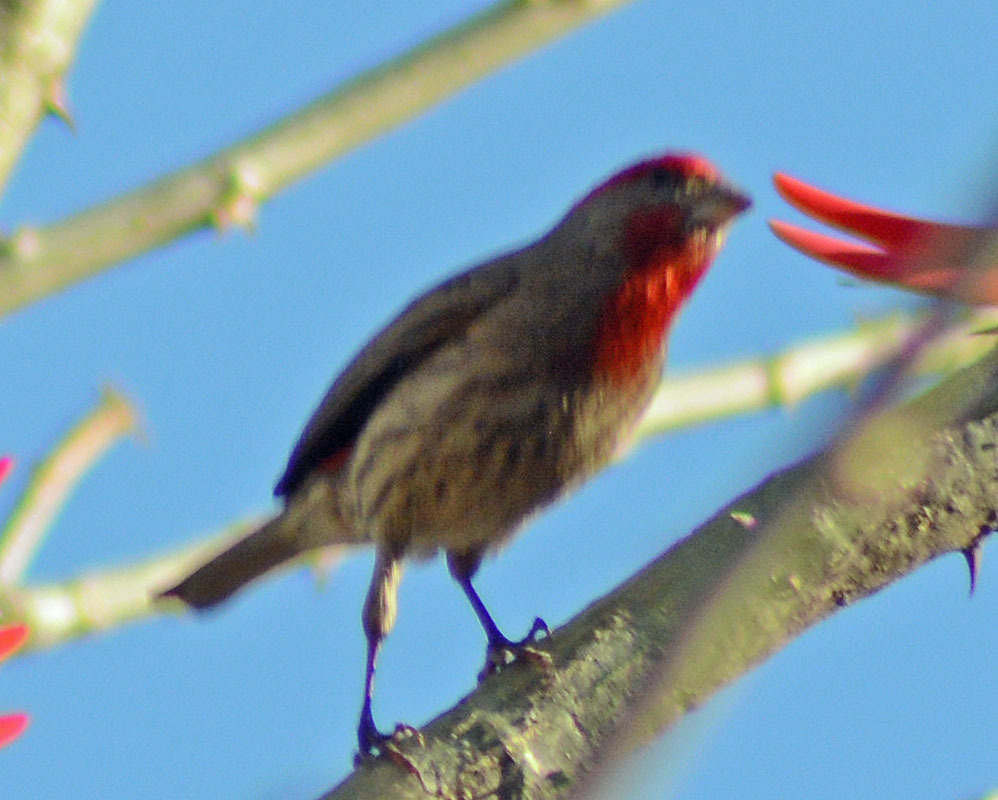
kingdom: Animalia
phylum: Chordata
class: Aves
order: Passeriformes
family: Fringillidae
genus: Haemorhous
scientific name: Haemorhous mexicanus
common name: House finch
